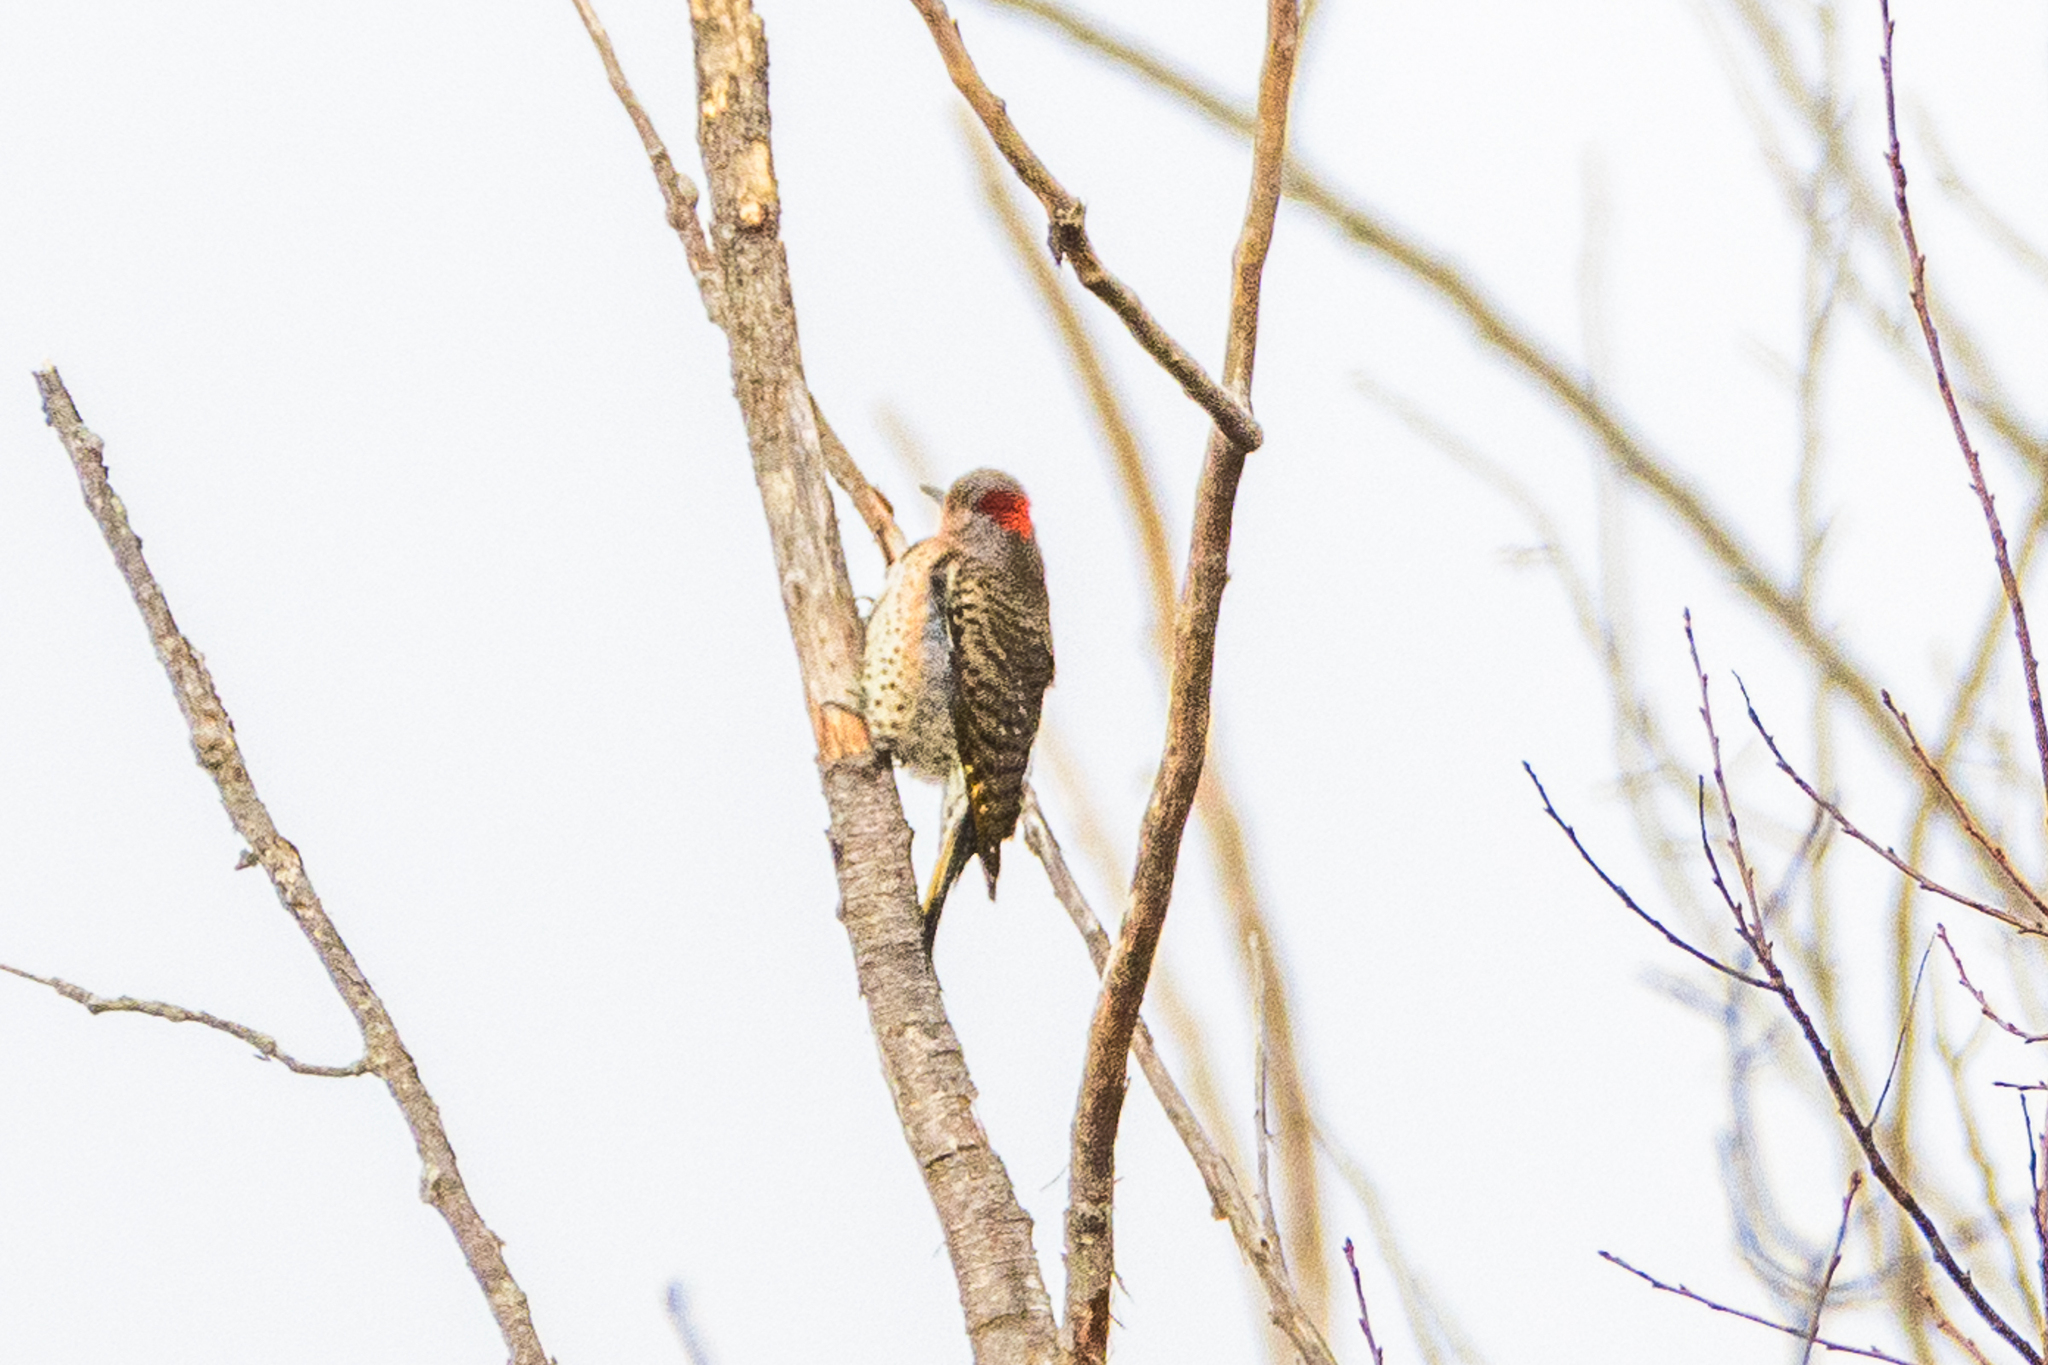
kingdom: Animalia
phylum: Chordata
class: Aves
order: Piciformes
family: Picidae
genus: Colaptes
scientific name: Colaptes auratus
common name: Northern flicker
